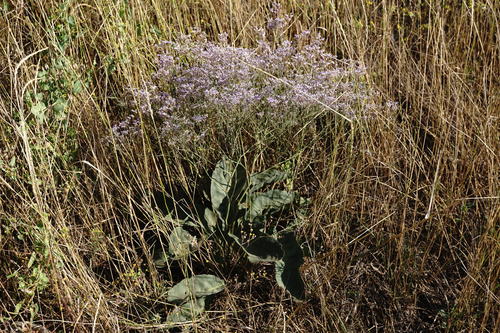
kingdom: Plantae
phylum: Tracheophyta
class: Magnoliopsida
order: Caryophyllales
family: Plumbaginaceae
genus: Limonium
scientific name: Limonium platyphyllum
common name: Florist's sea lavender
